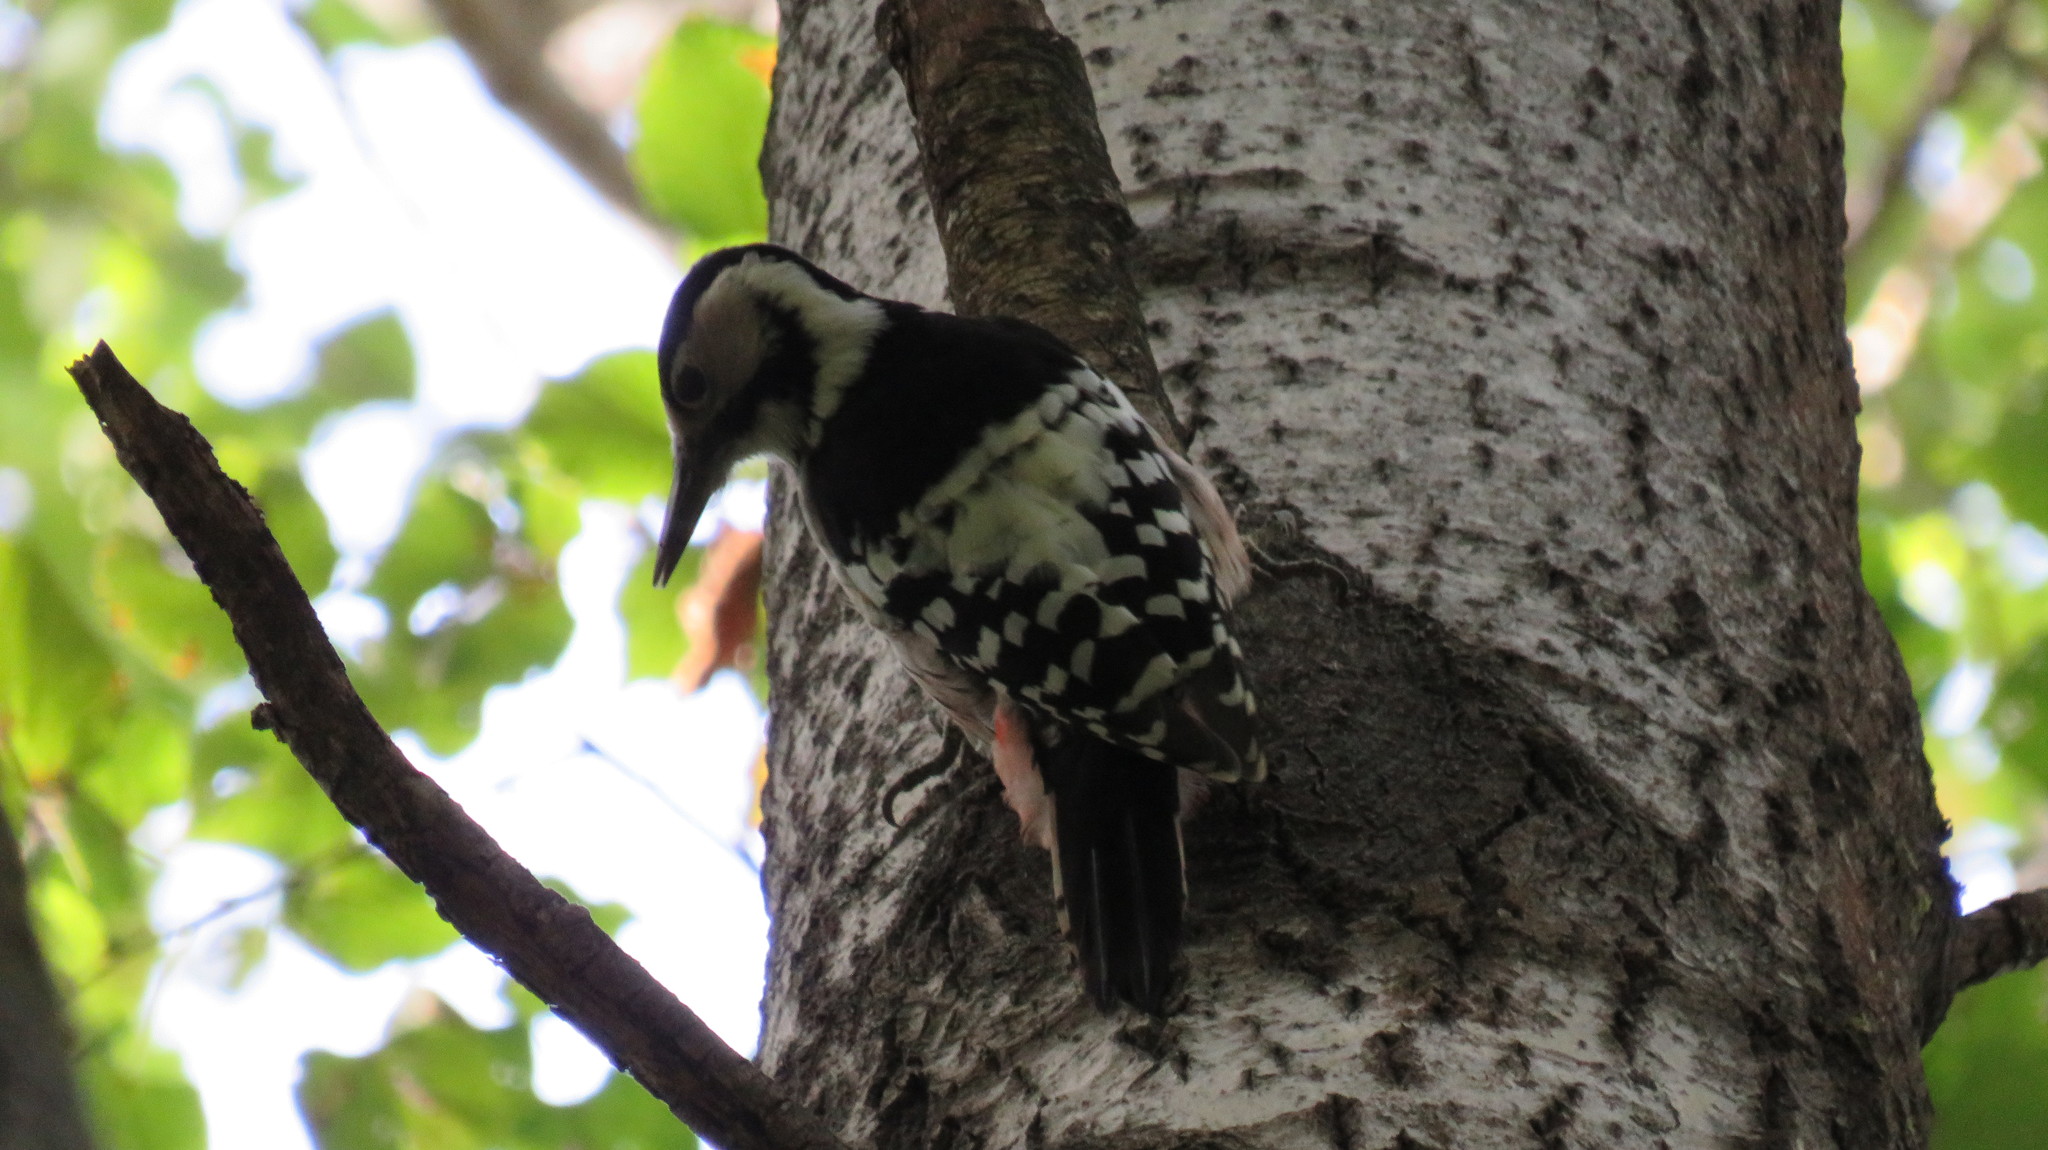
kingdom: Animalia
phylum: Chordata
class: Aves
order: Piciformes
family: Picidae
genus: Dendrocopos
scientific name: Dendrocopos leucotos
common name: White-backed woodpecker
